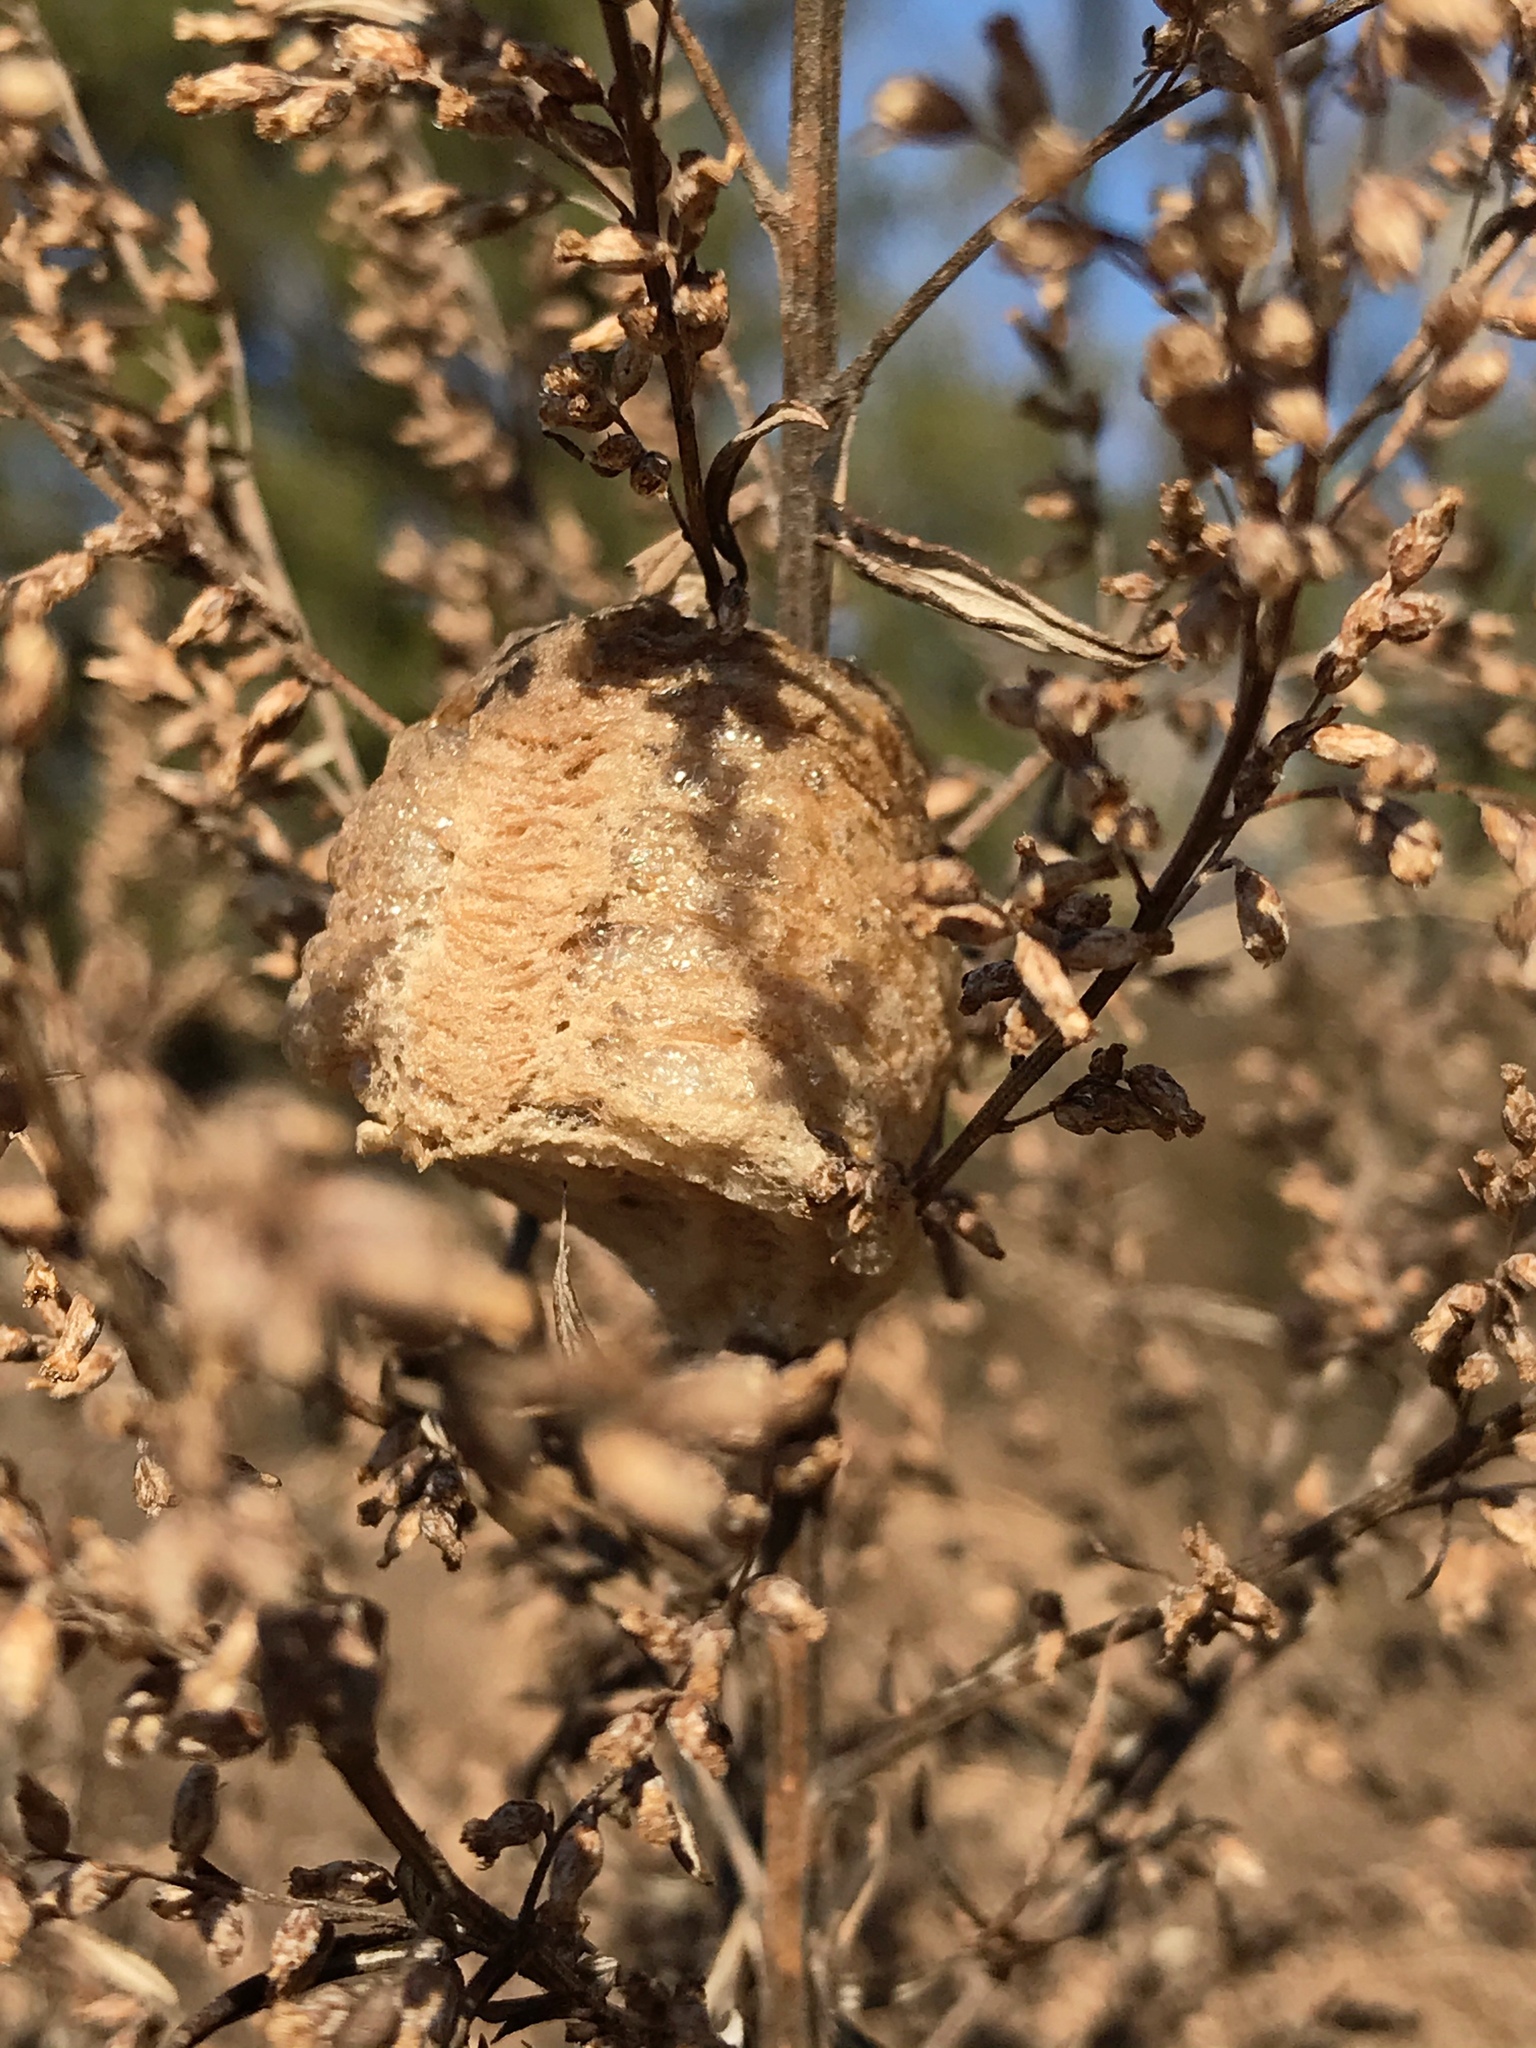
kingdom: Animalia
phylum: Arthropoda
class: Insecta
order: Mantodea
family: Mantidae
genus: Tenodera
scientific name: Tenodera sinensis
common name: Chinese mantis
